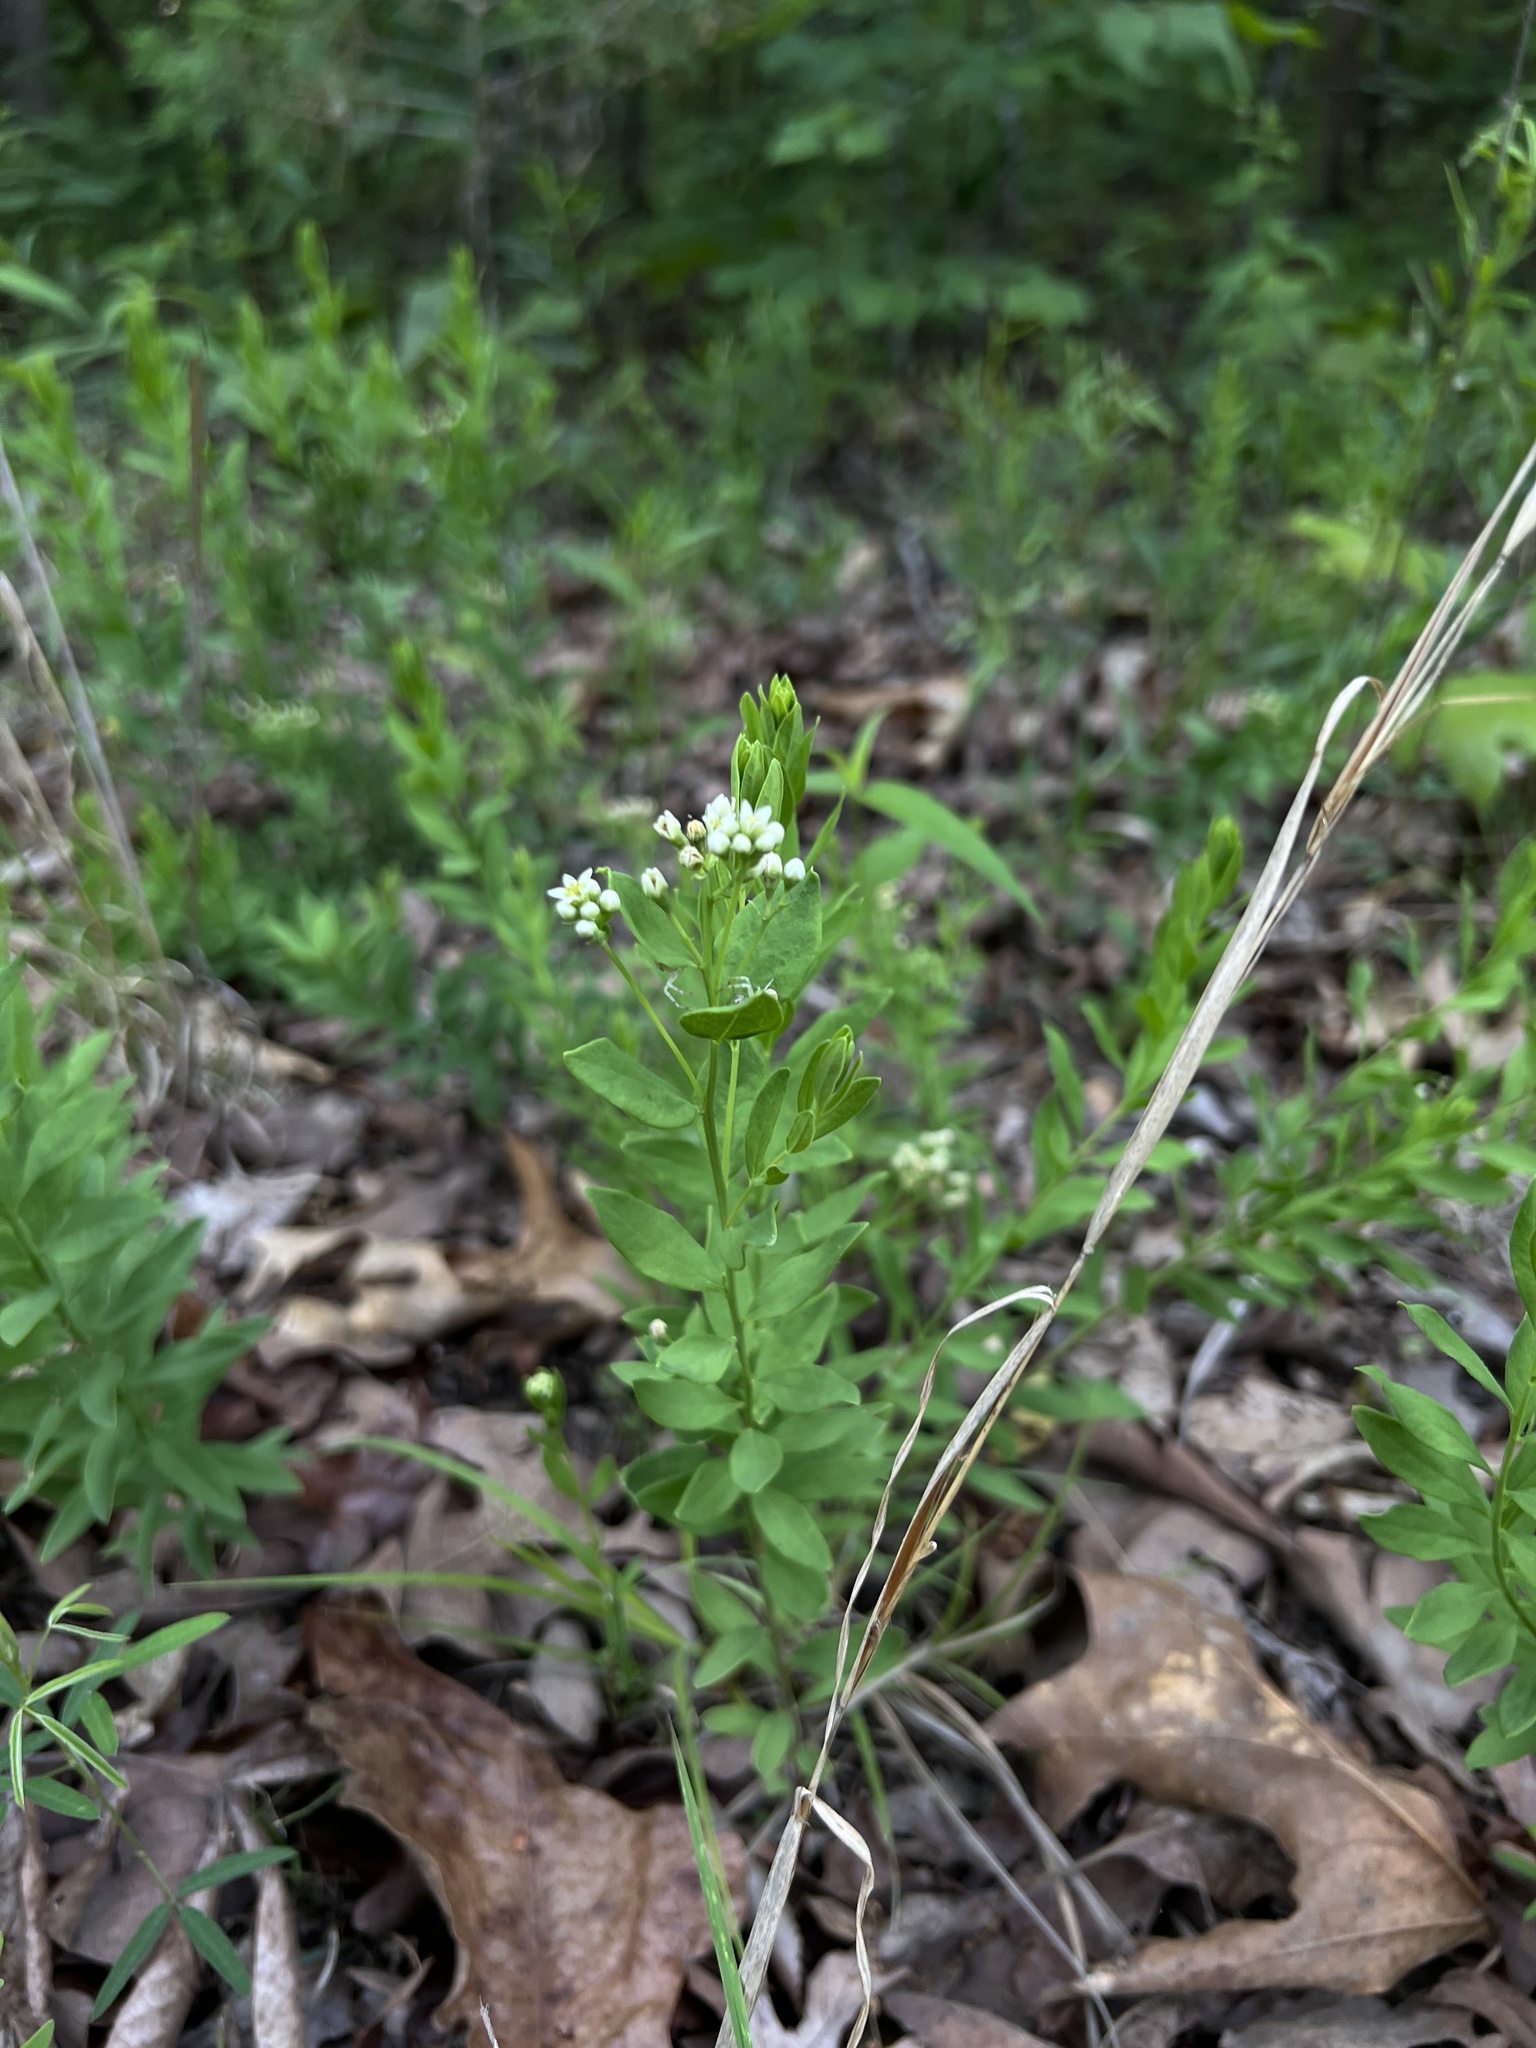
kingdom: Plantae
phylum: Tracheophyta
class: Magnoliopsida
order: Santalales
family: Comandraceae
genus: Comandra
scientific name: Comandra umbellata
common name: Bastard toadflax
